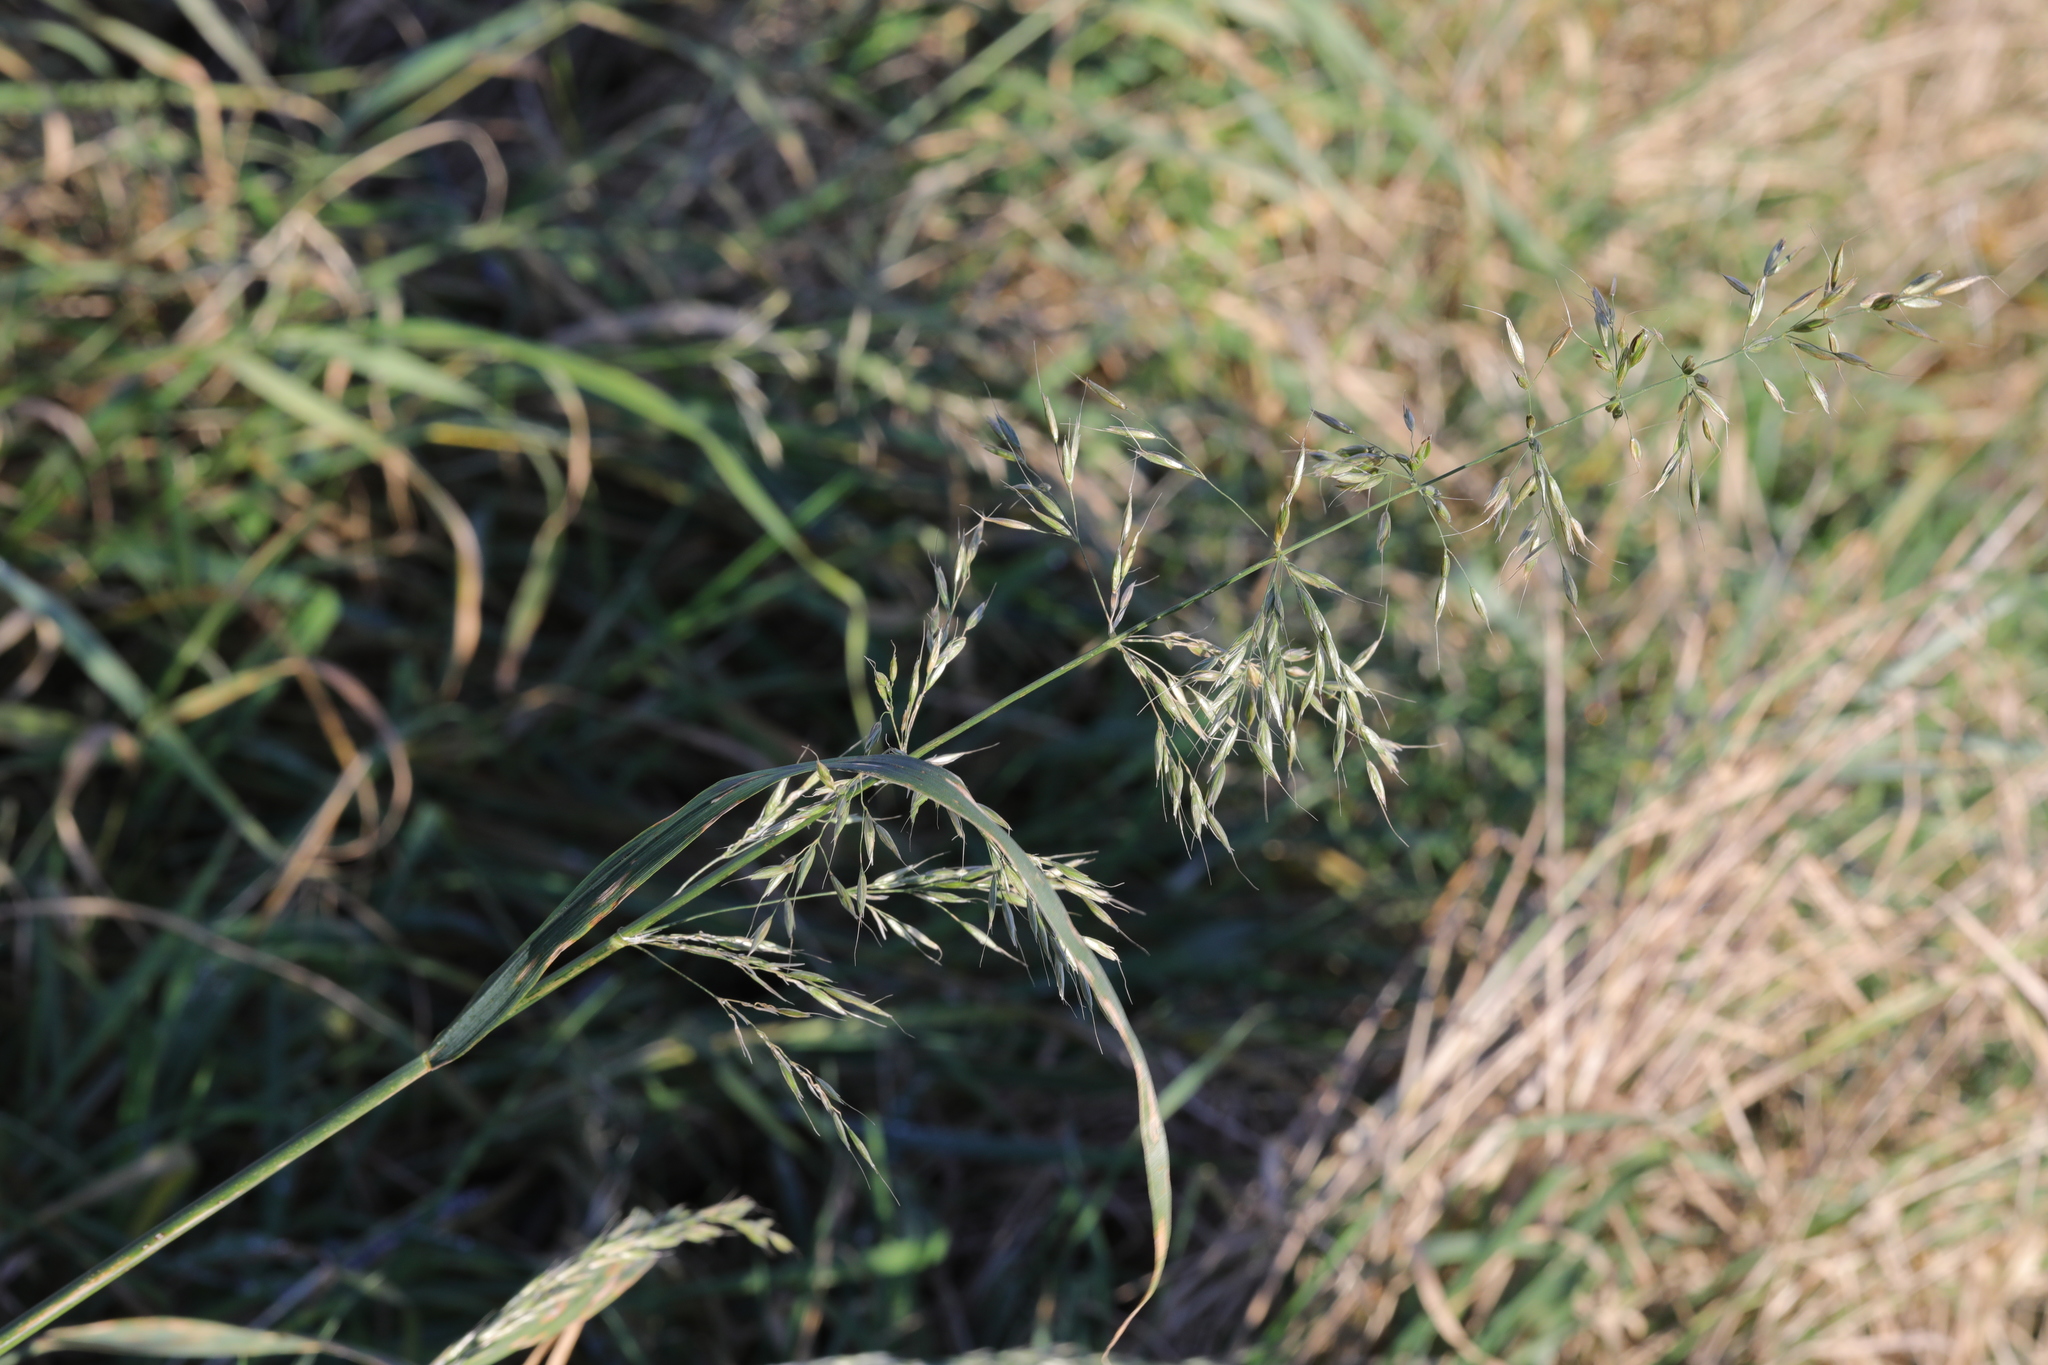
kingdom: Plantae
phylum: Tracheophyta
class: Liliopsida
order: Poales
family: Poaceae
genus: Arrhenatherum
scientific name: Arrhenatherum elatius
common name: Tall oatgrass
